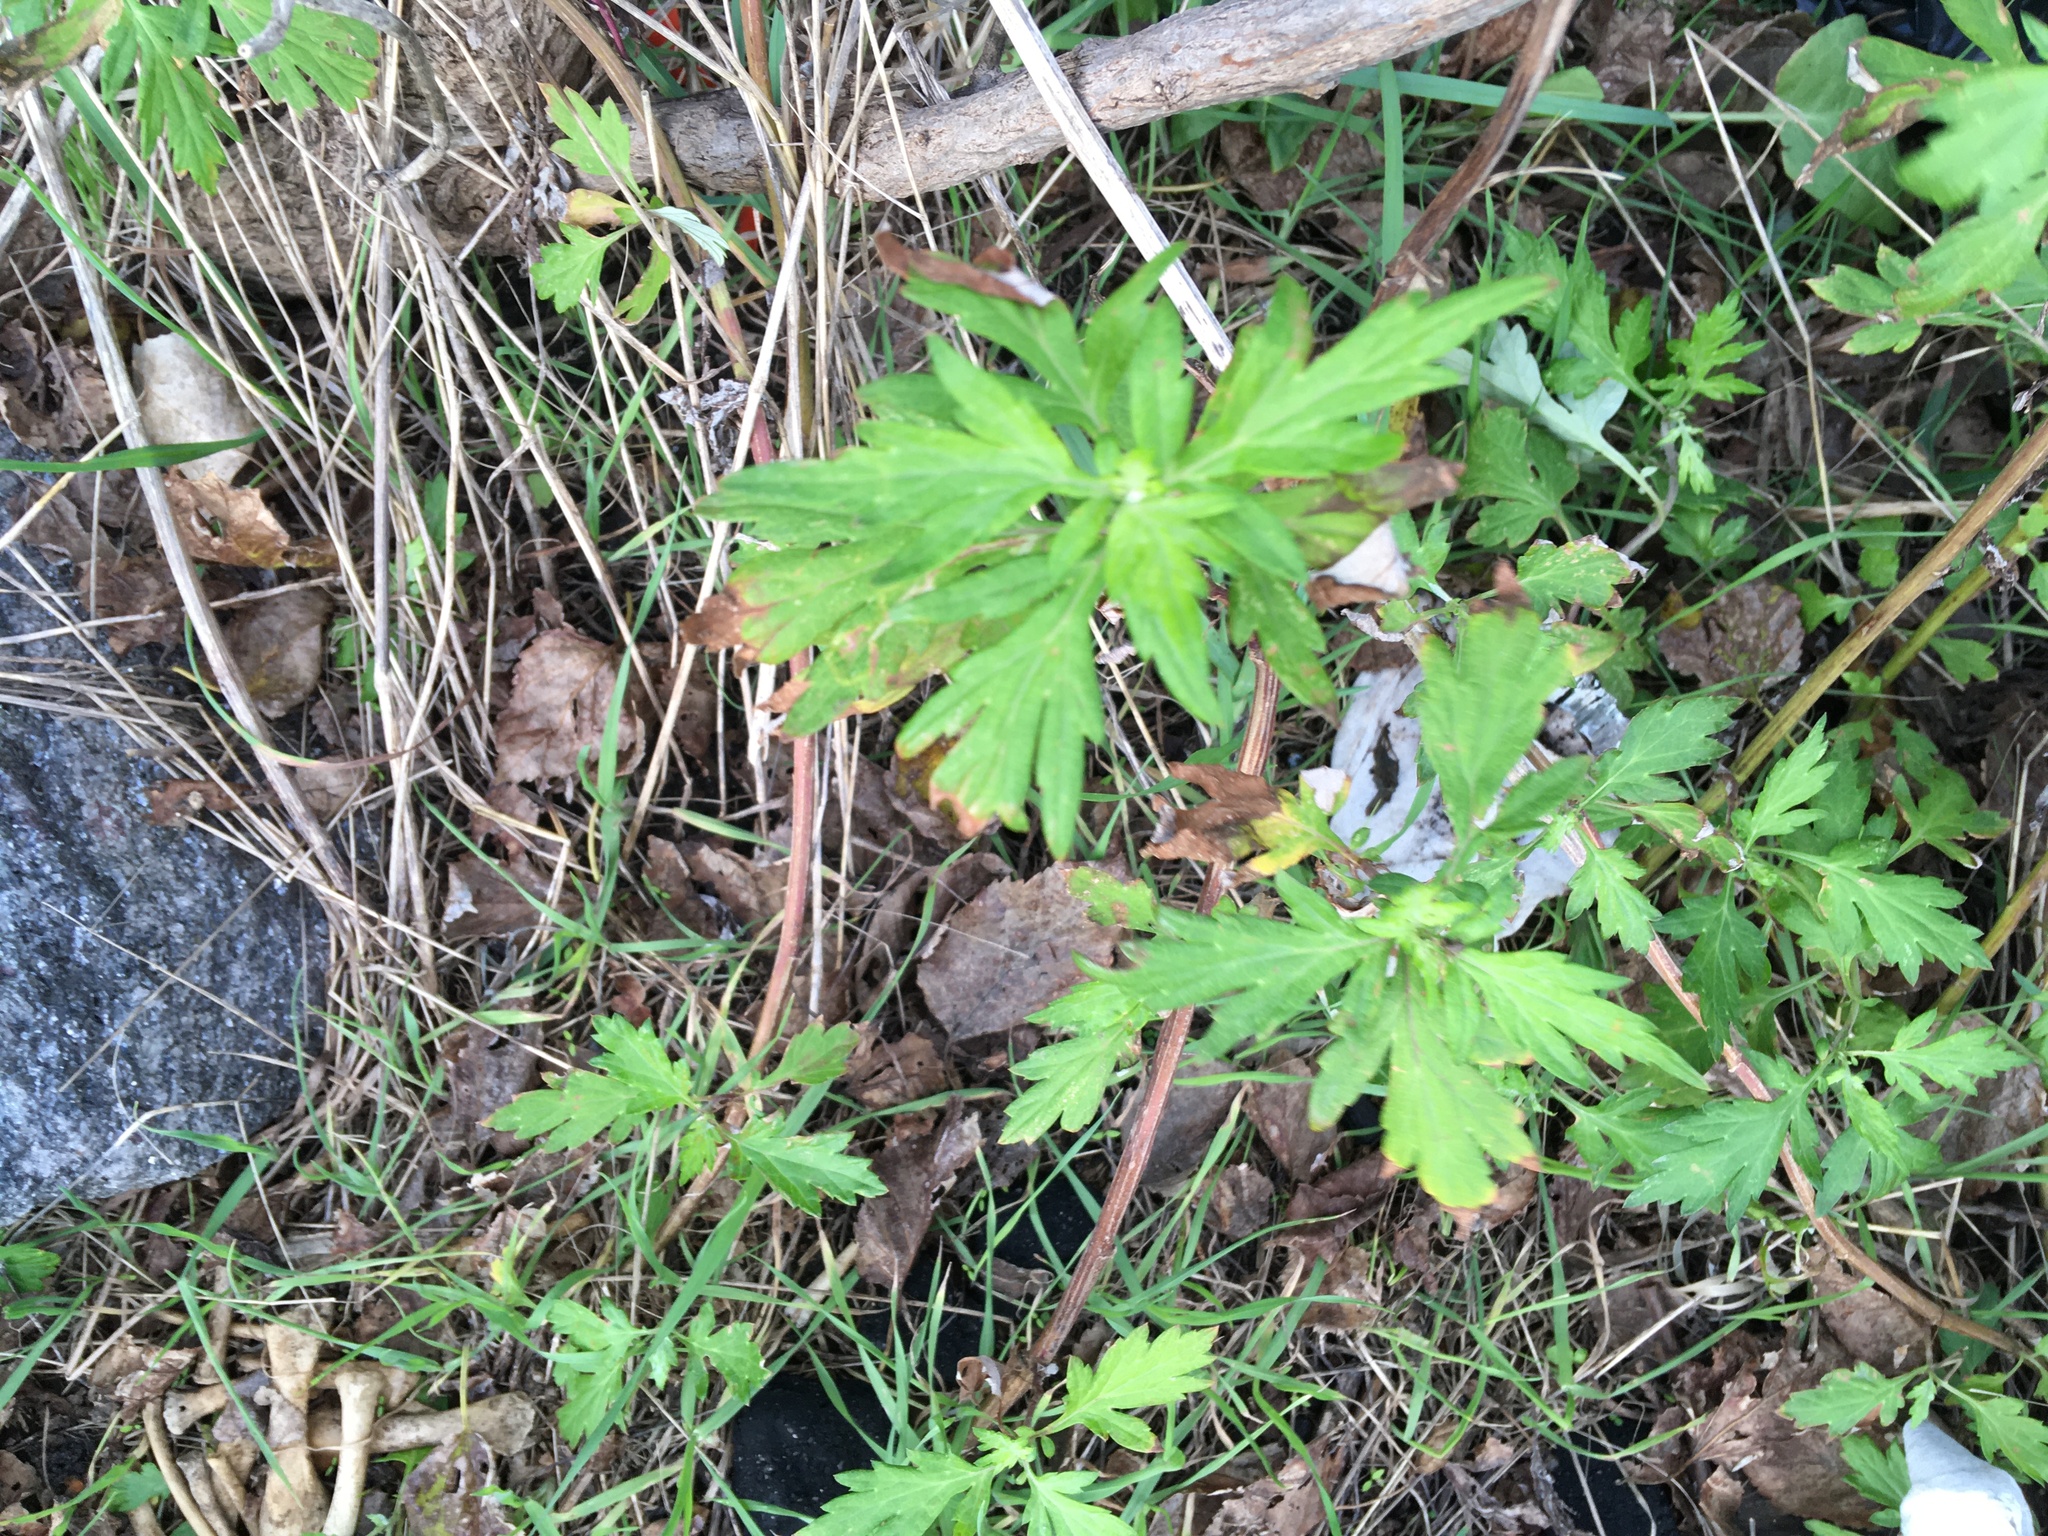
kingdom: Plantae
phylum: Tracheophyta
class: Magnoliopsida
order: Asterales
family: Asteraceae
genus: Artemisia
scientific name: Artemisia vulgaris
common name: Mugwort
